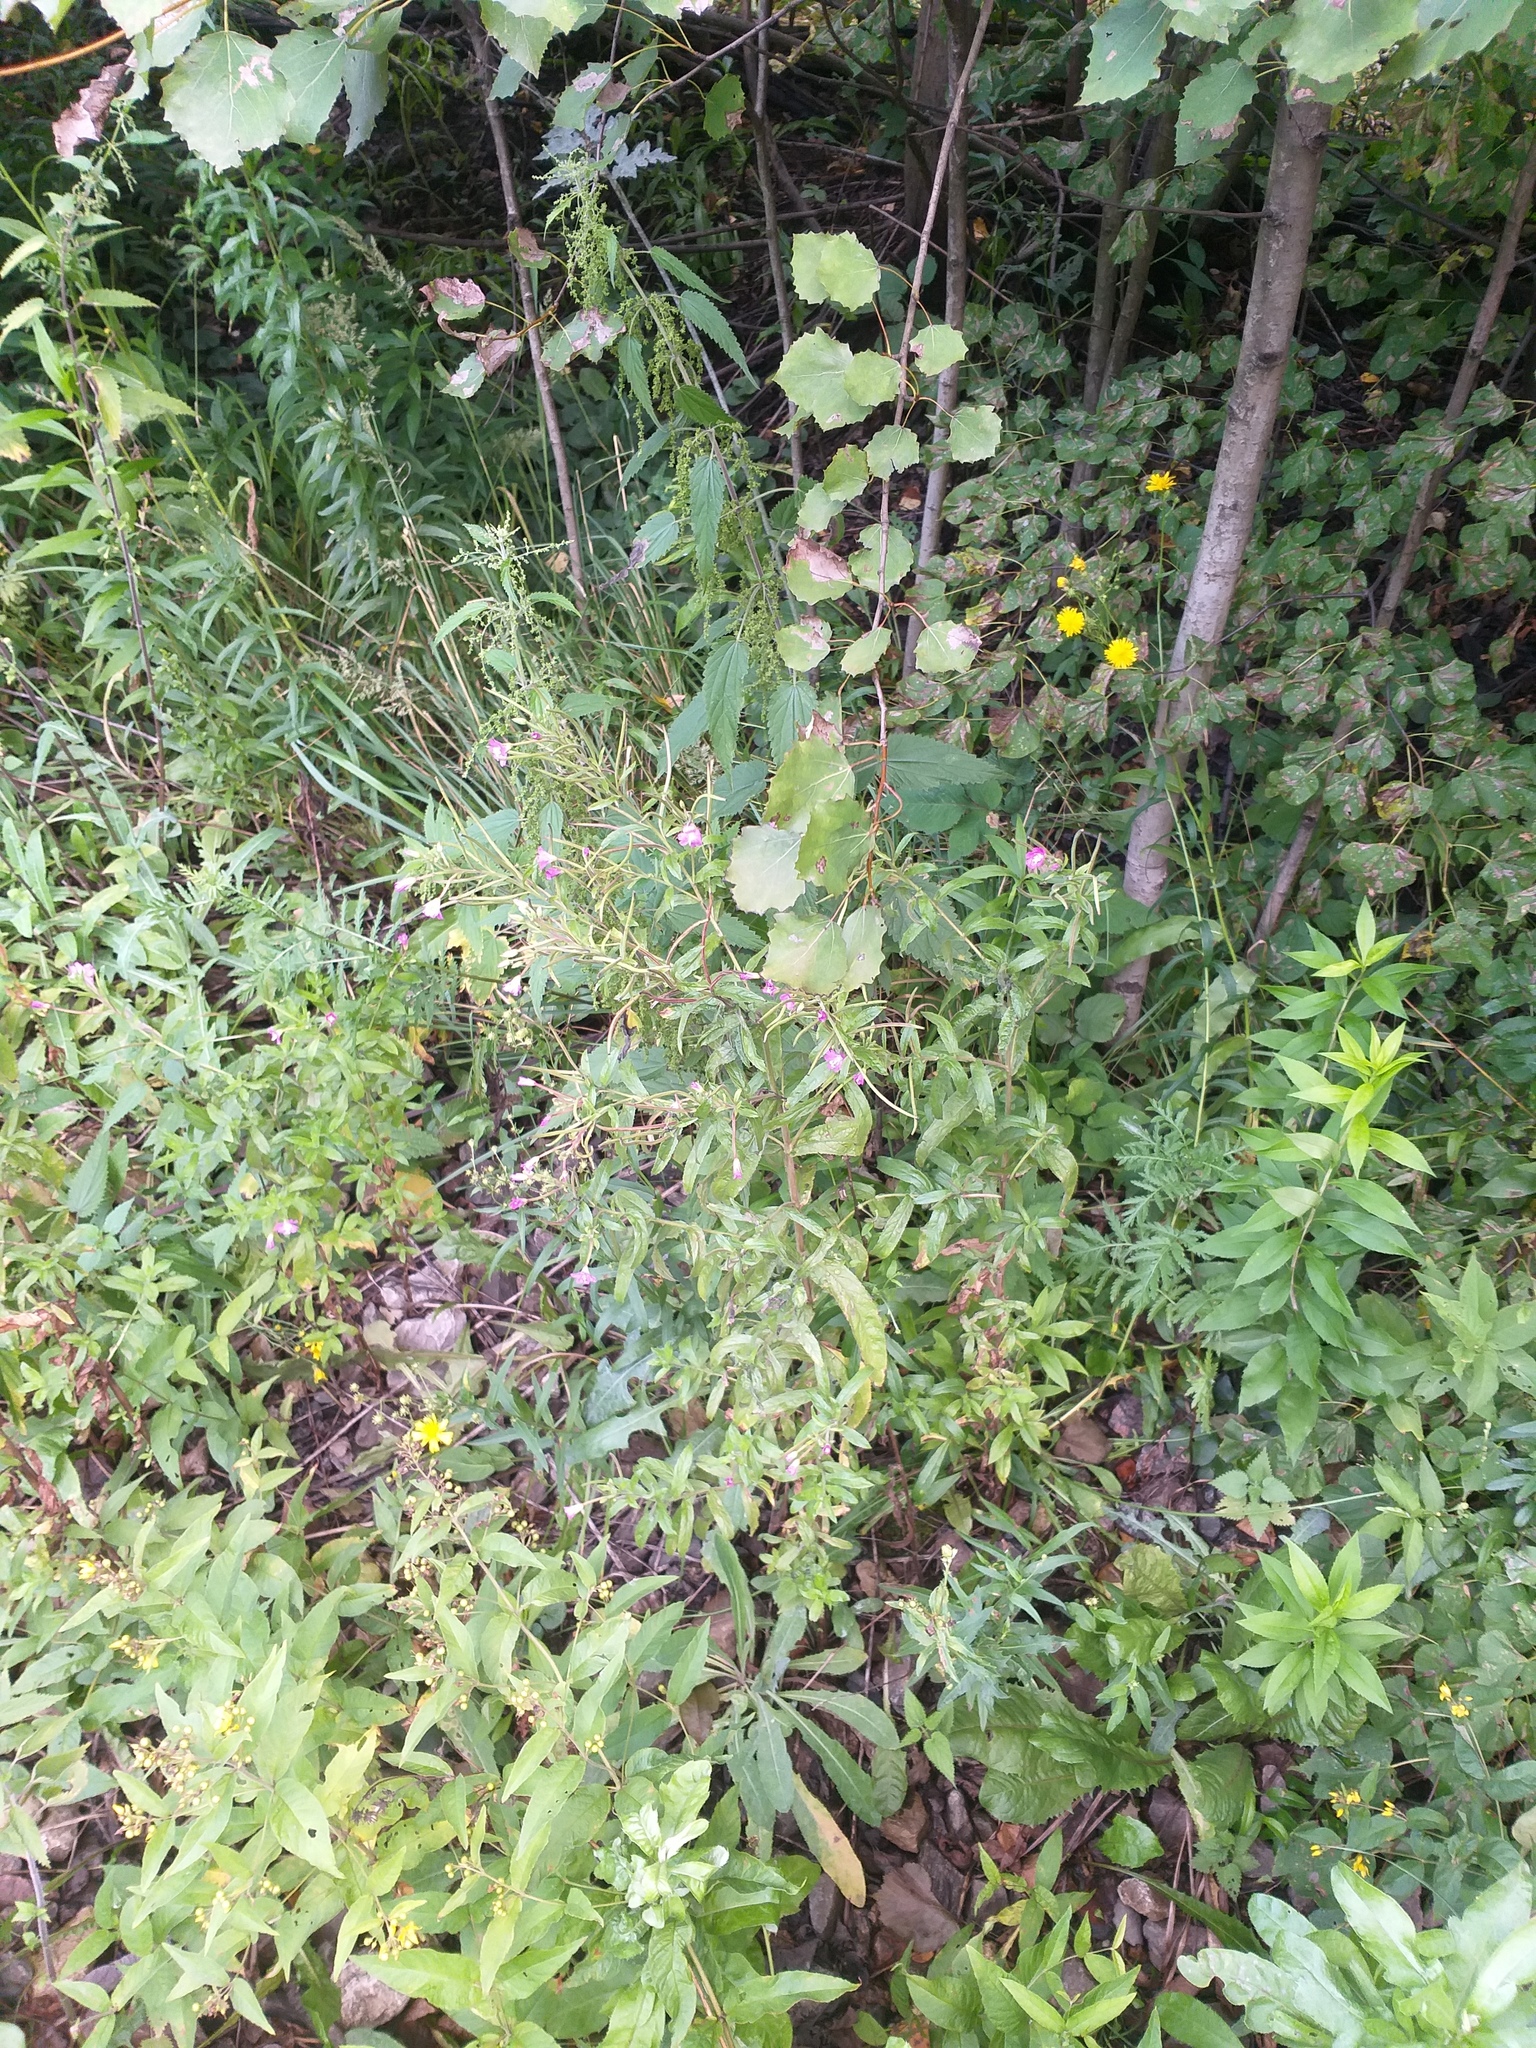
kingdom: Plantae
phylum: Tracheophyta
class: Magnoliopsida
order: Myrtales
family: Onagraceae
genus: Epilobium
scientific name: Epilobium hirsutum
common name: Great willowherb
